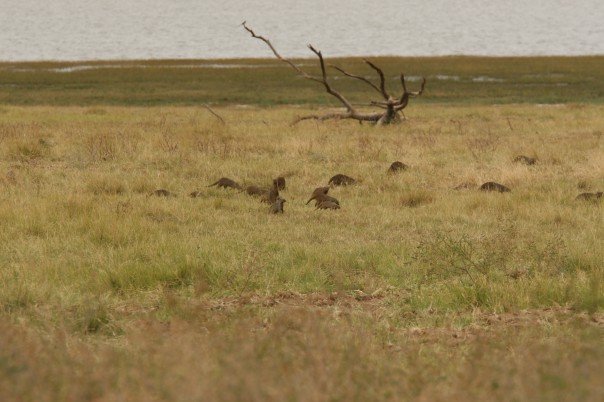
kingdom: Animalia
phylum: Chordata
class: Mammalia
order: Carnivora
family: Herpestidae
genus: Mungos
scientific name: Mungos mungo
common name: Banded mongoose
